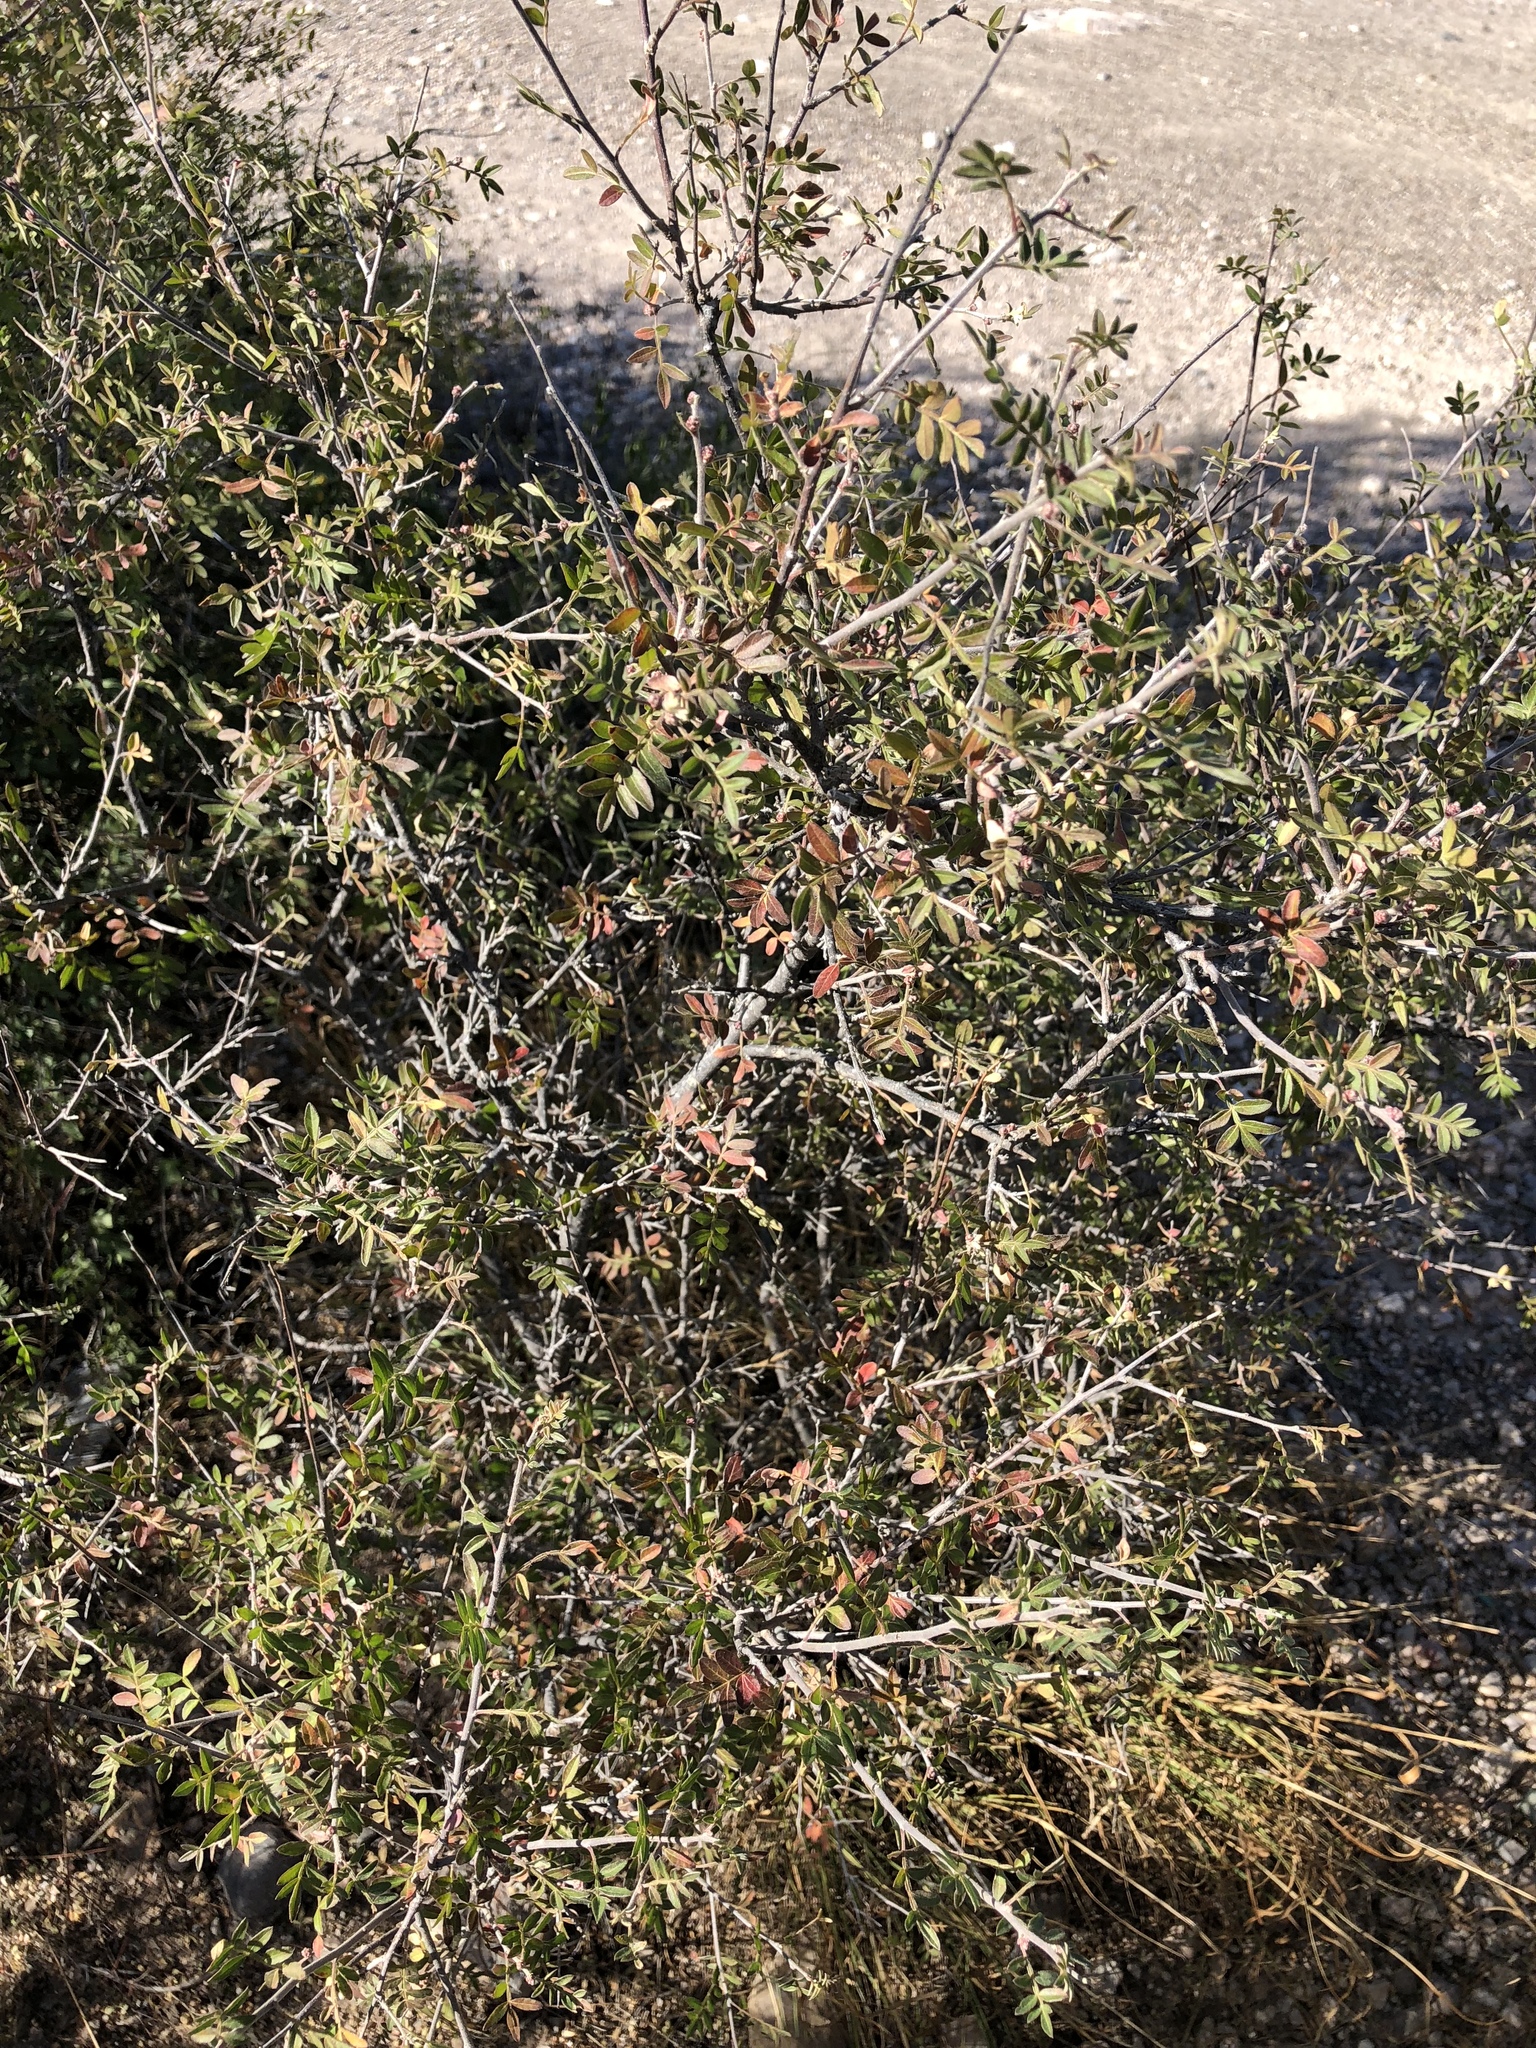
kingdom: Plantae
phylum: Tracheophyta
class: Magnoliopsida
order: Sapindales
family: Anacardiaceae
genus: Rhus
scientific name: Rhus microphylla
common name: Desert sumac
